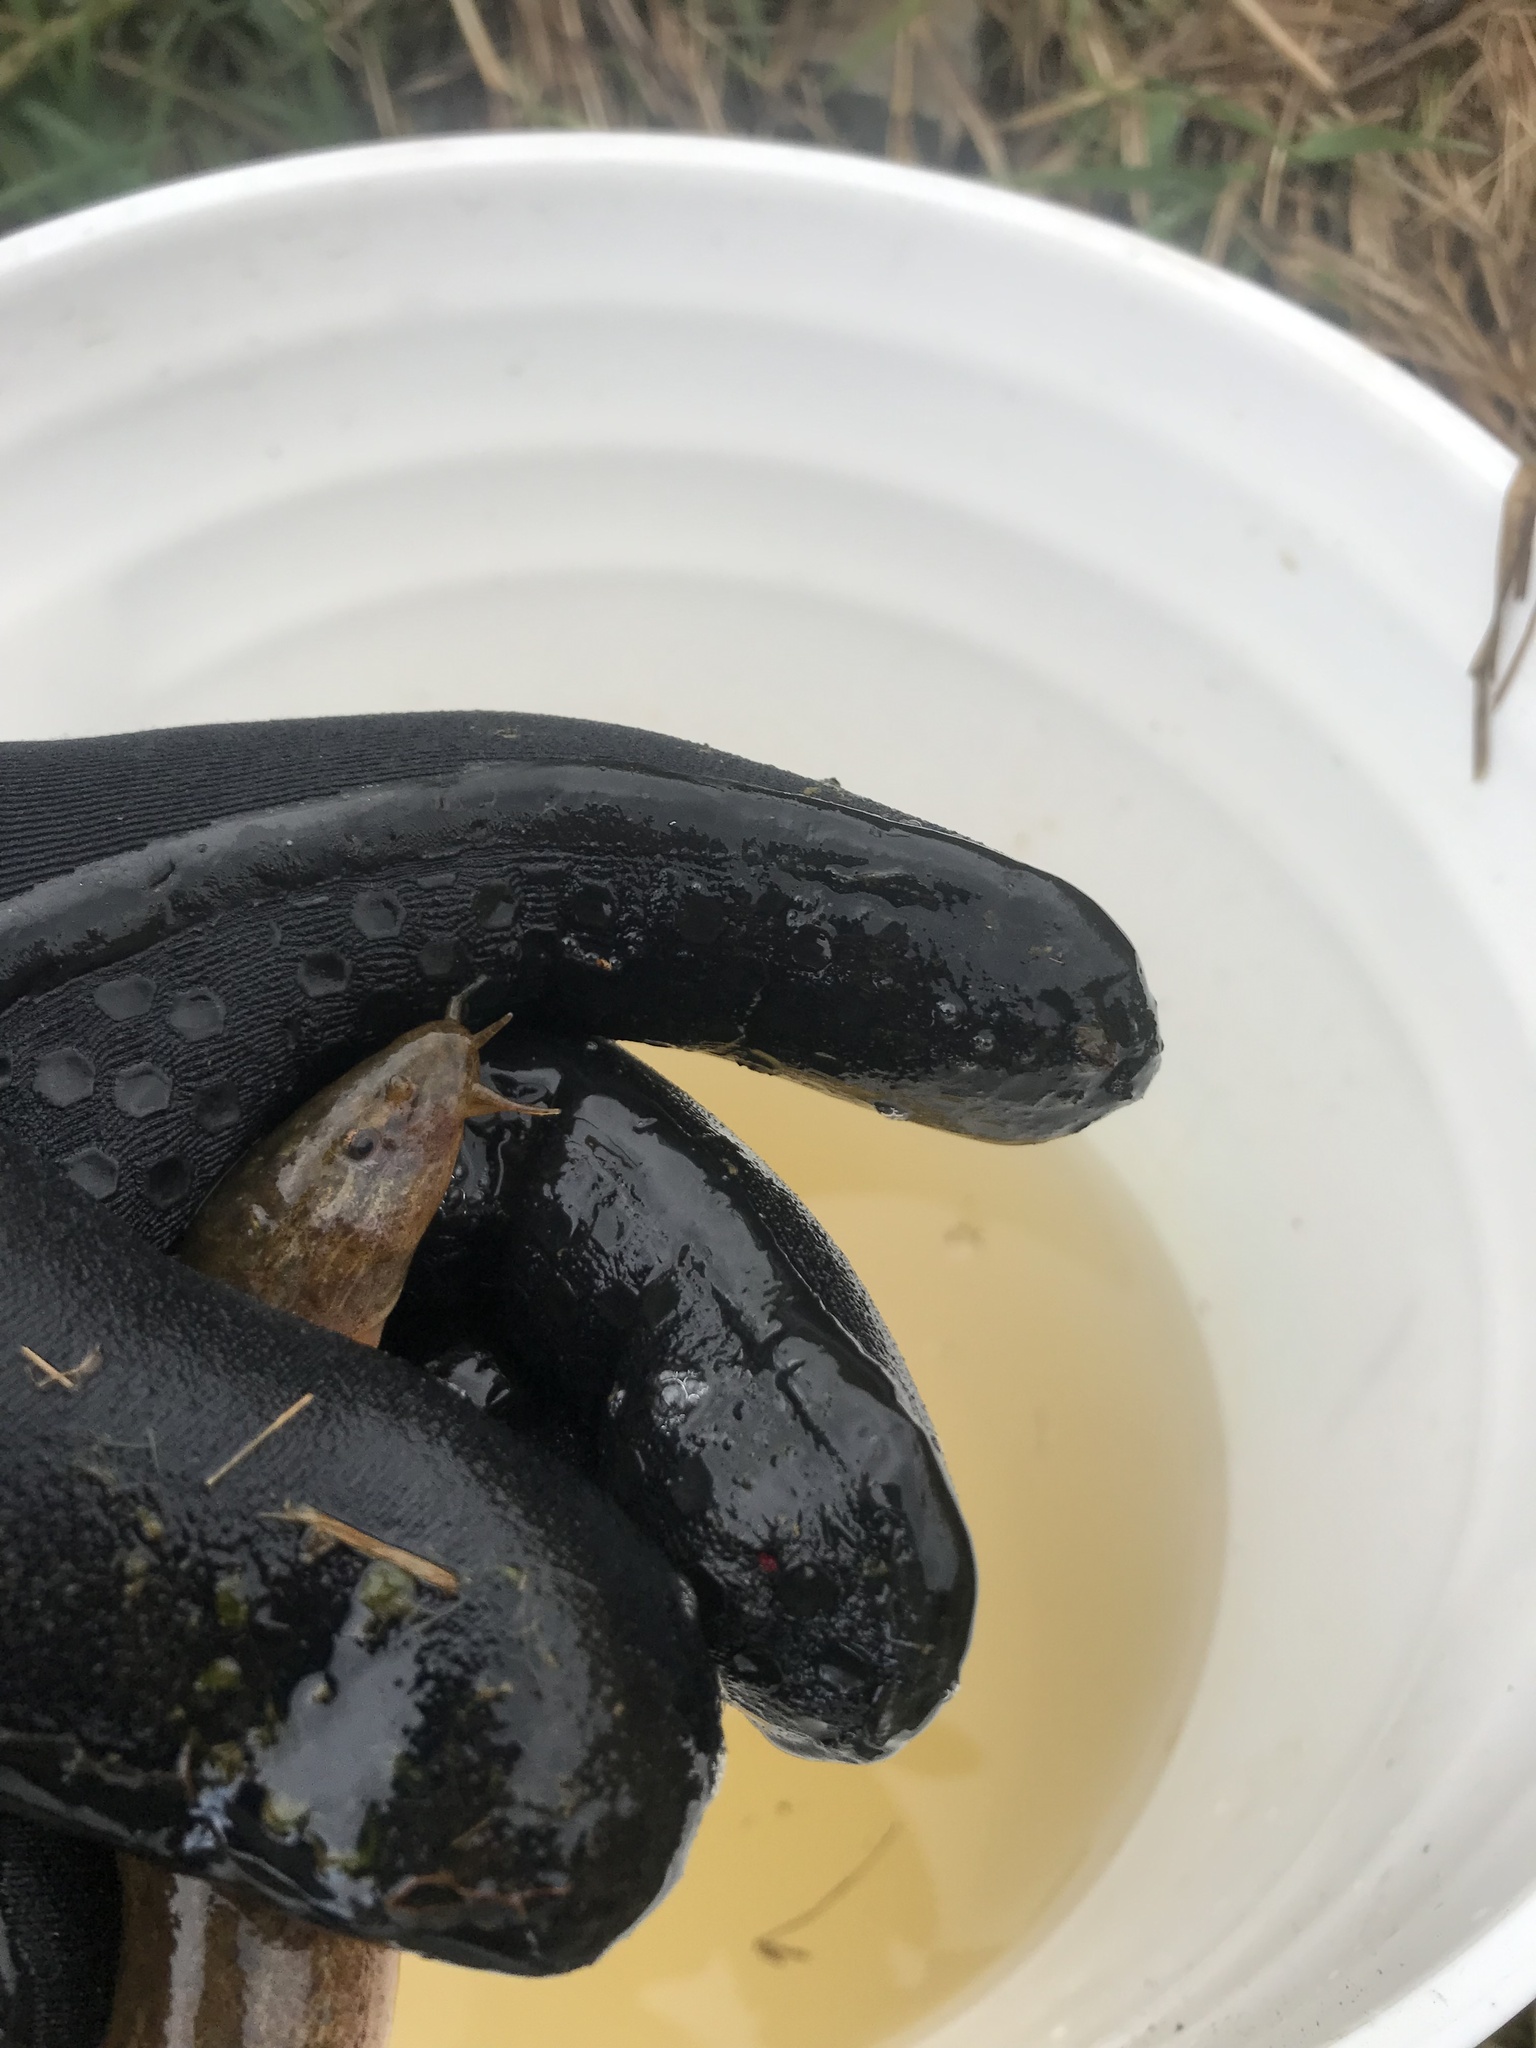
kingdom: Animalia
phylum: Chordata
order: Cypriniformes
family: Cobitidae
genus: Misgurnus
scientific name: Misgurnus anguillicaudatus
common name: Oriental weatherfish
